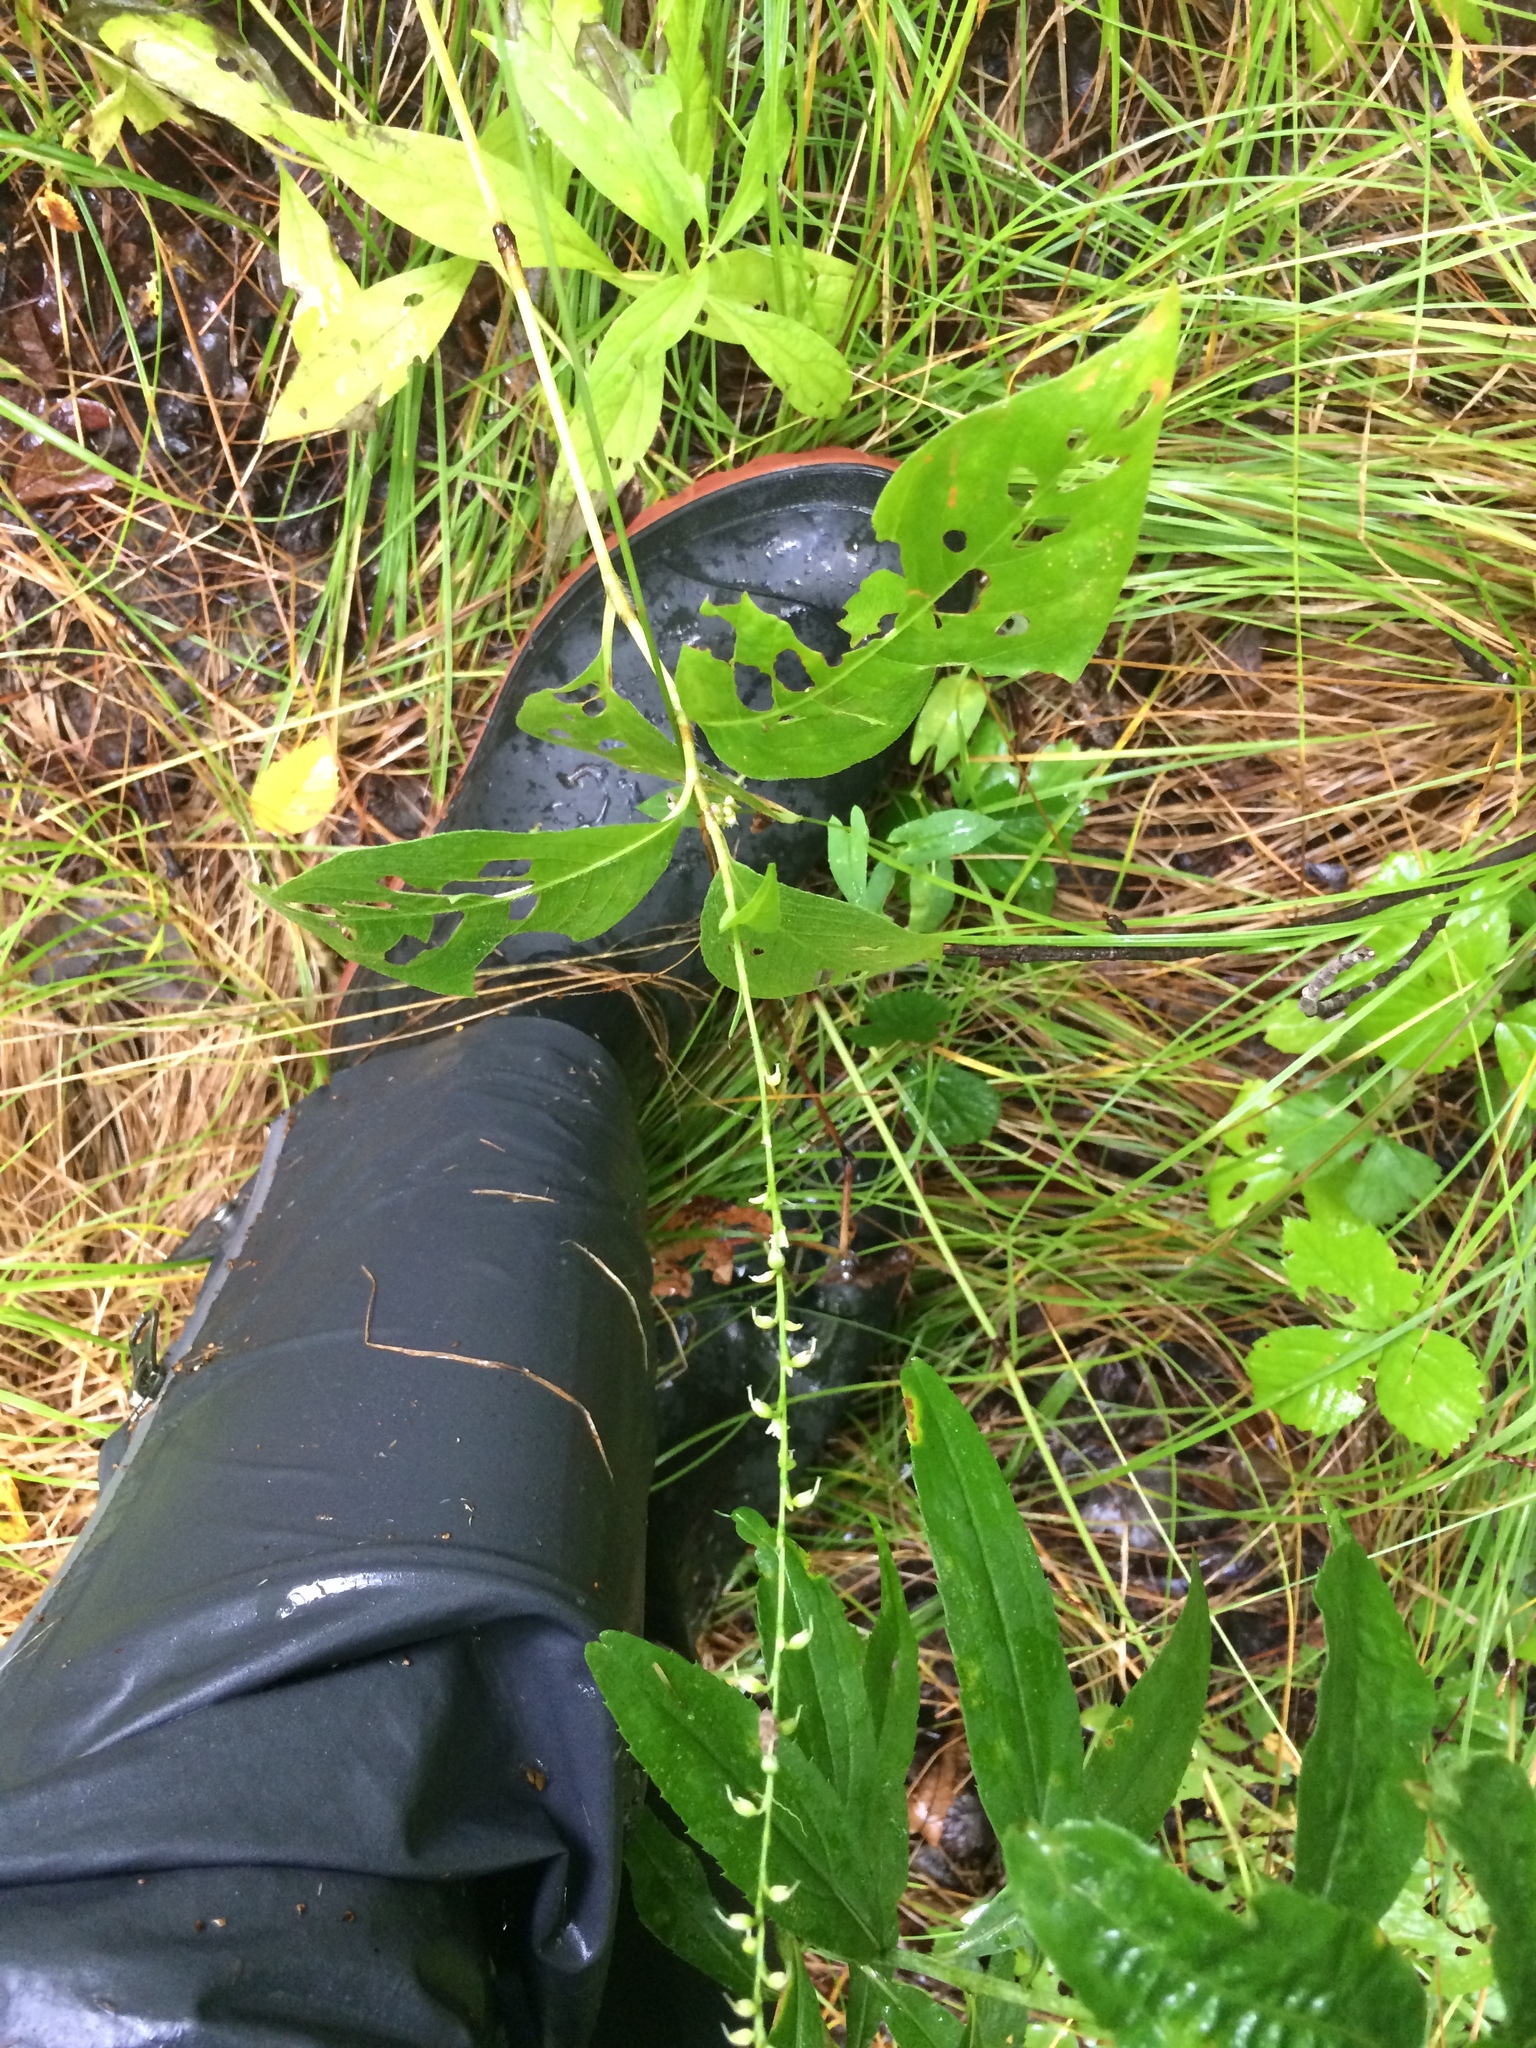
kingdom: Plantae
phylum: Tracheophyta
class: Magnoliopsida
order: Caryophyllales
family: Polygonaceae
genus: Persicaria
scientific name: Persicaria virginiana
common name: Jumpseed
